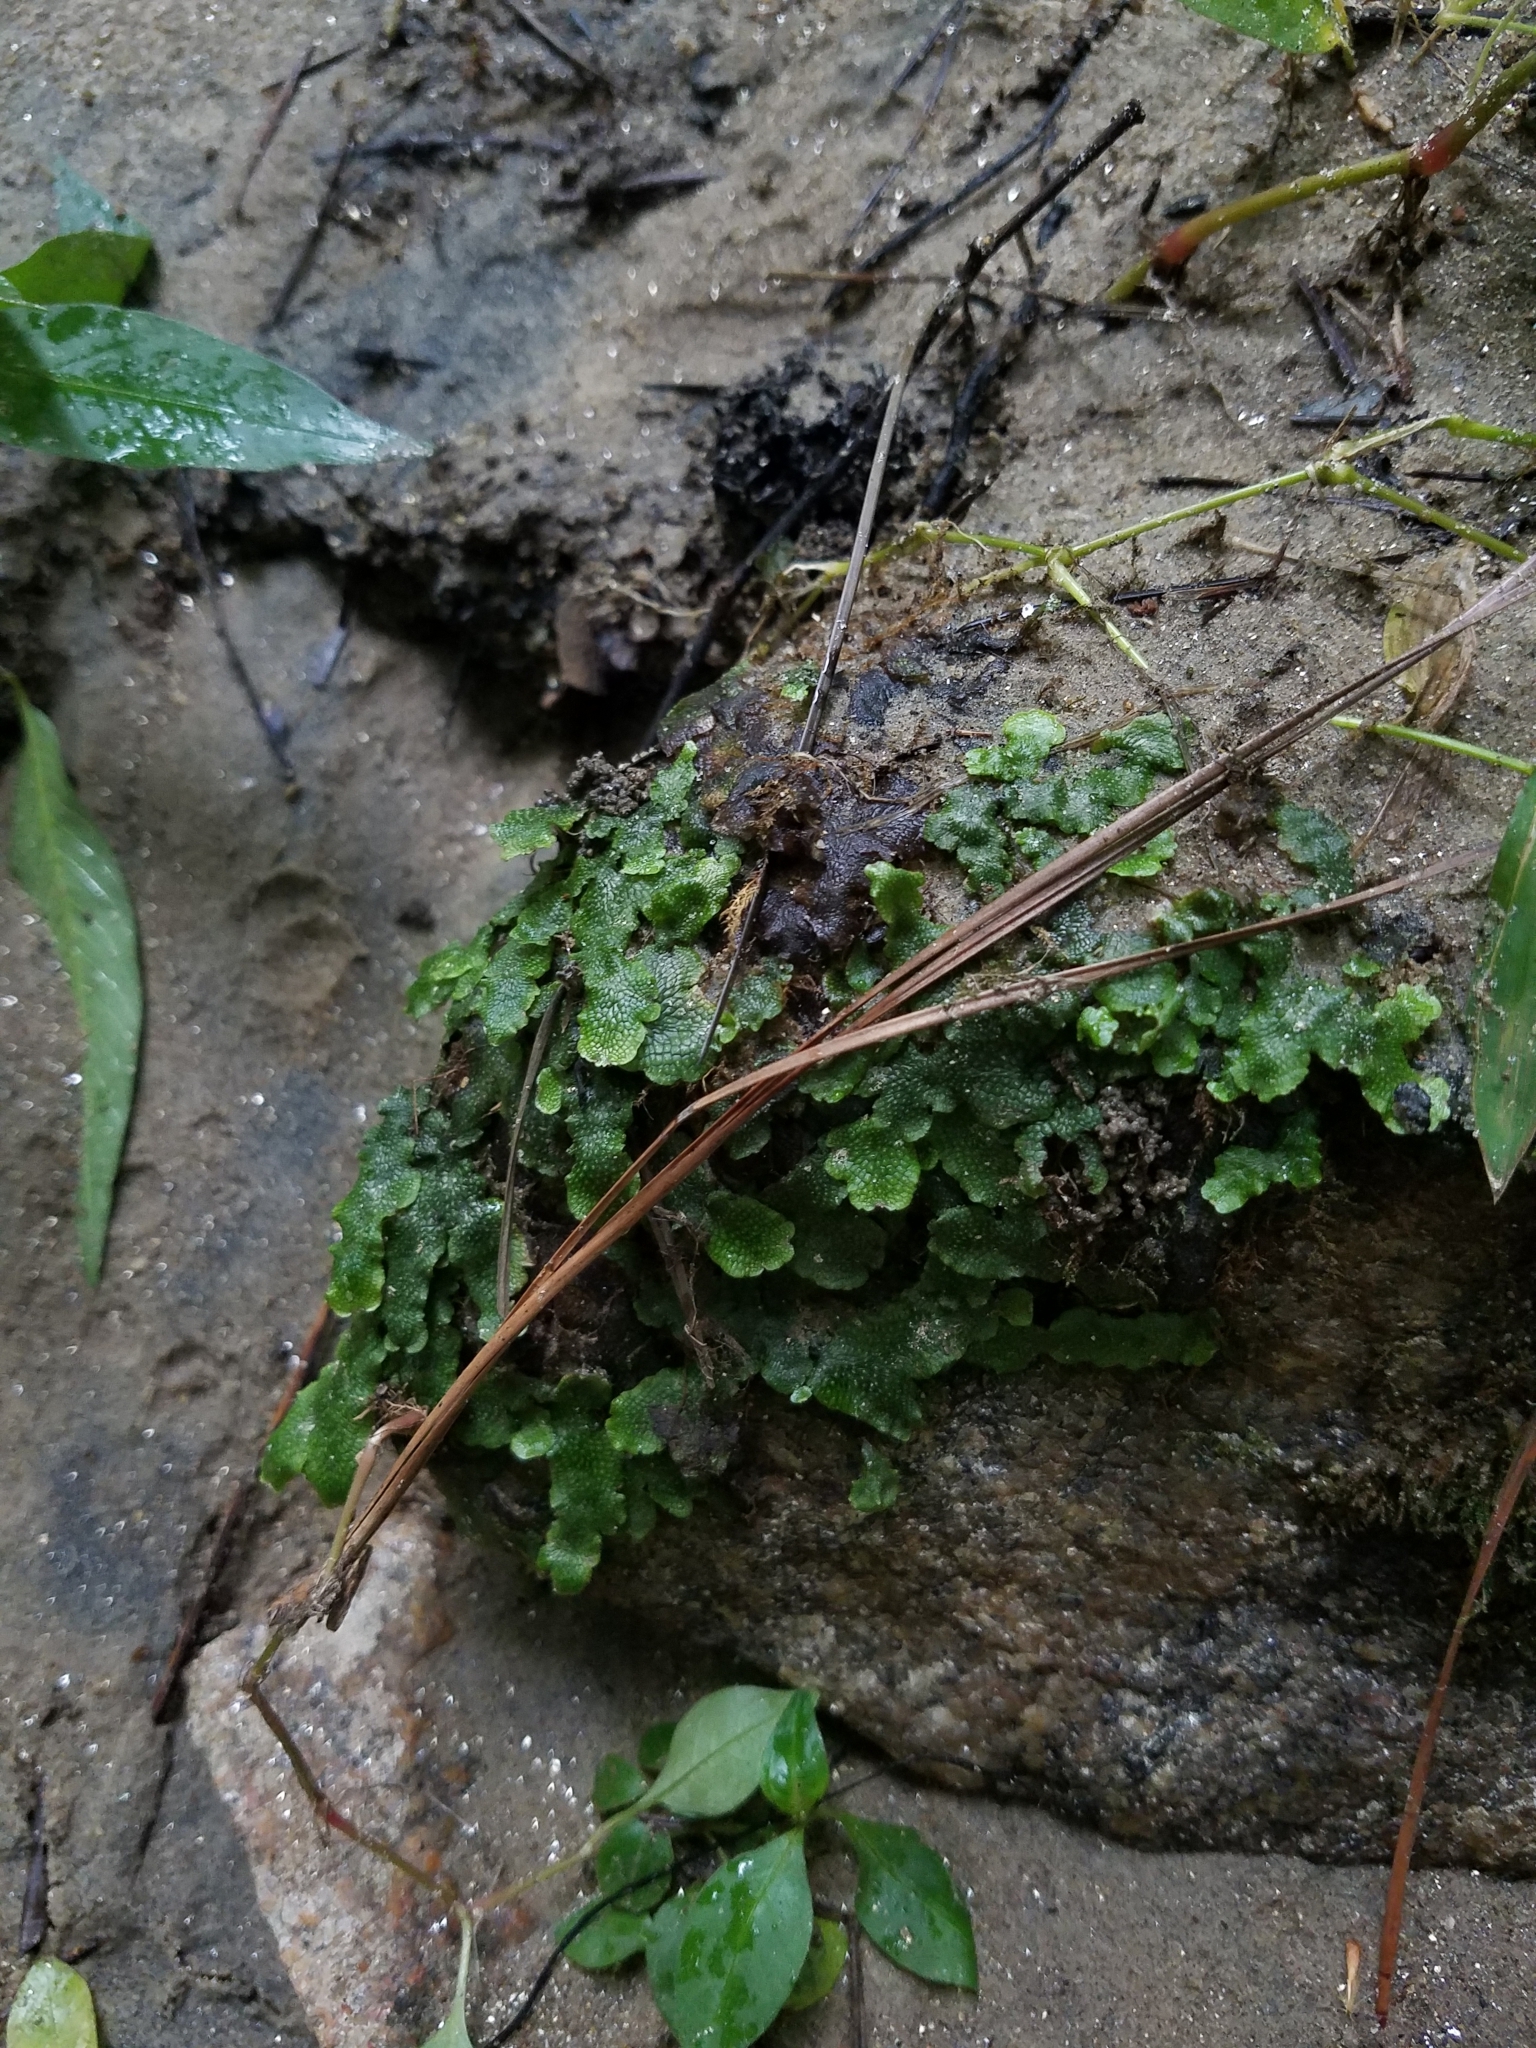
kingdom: Plantae
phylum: Marchantiophyta
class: Marchantiopsida
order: Marchantiales
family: Conocephalaceae
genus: Conocephalum
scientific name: Conocephalum salebrosum
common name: Cat-tongue liverwort
